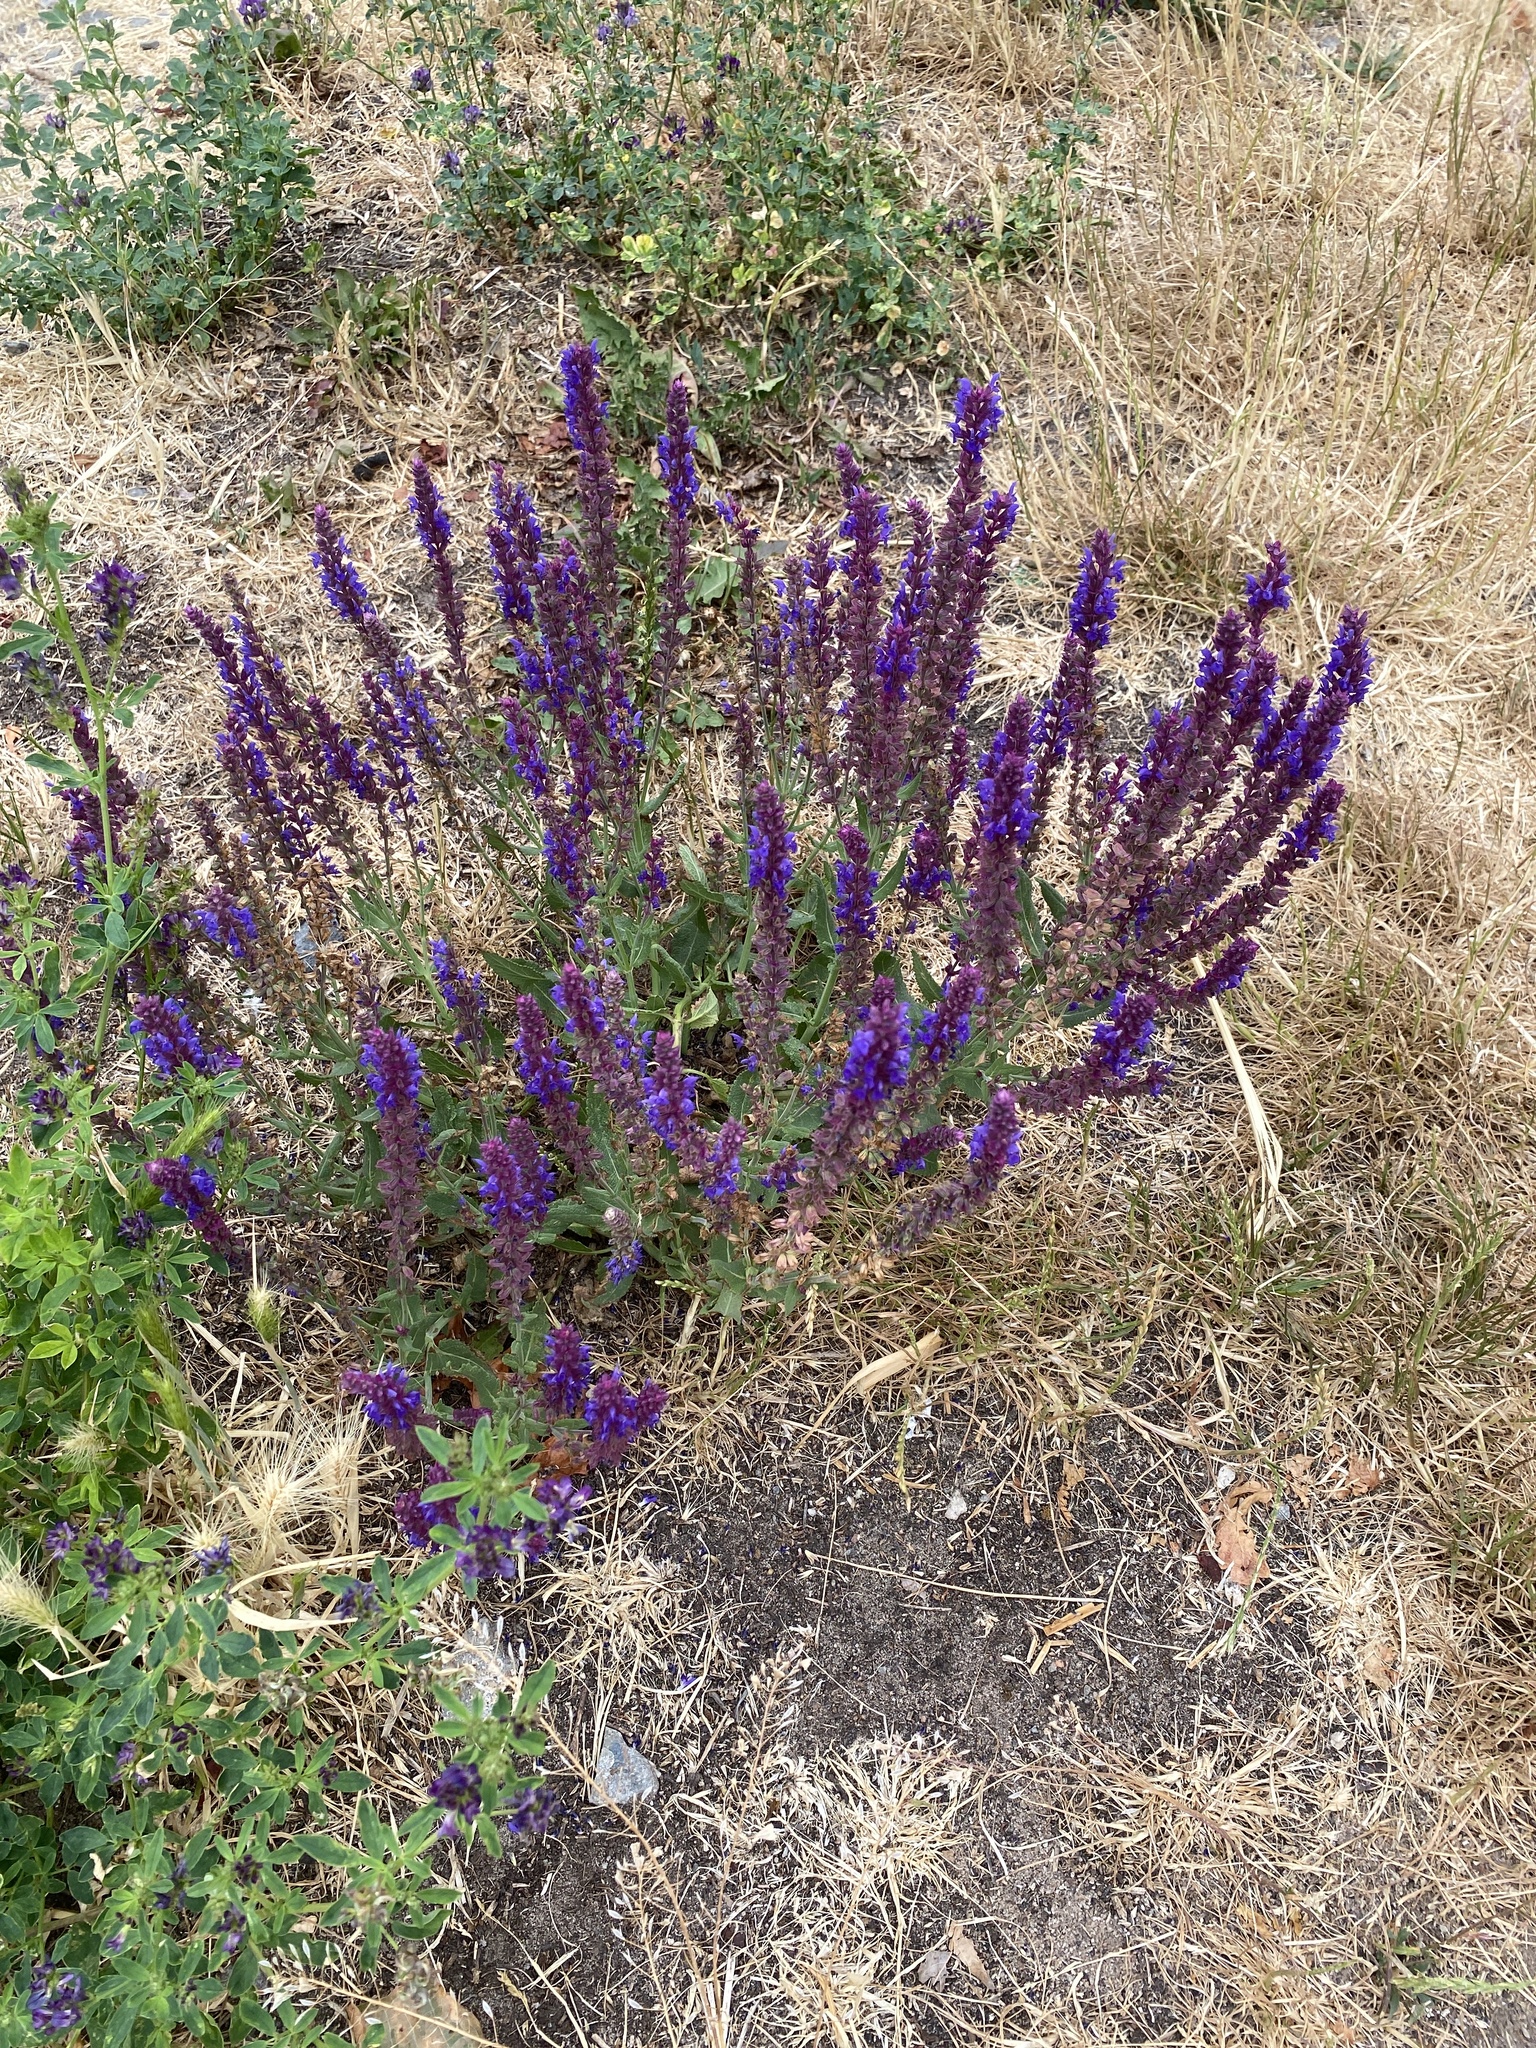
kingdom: Plantae
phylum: Tracheophyta
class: Magnoliopsida
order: Lamiales
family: Lamiaceae
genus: Salvia
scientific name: Salvia nemorosa
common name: Balkan clary
